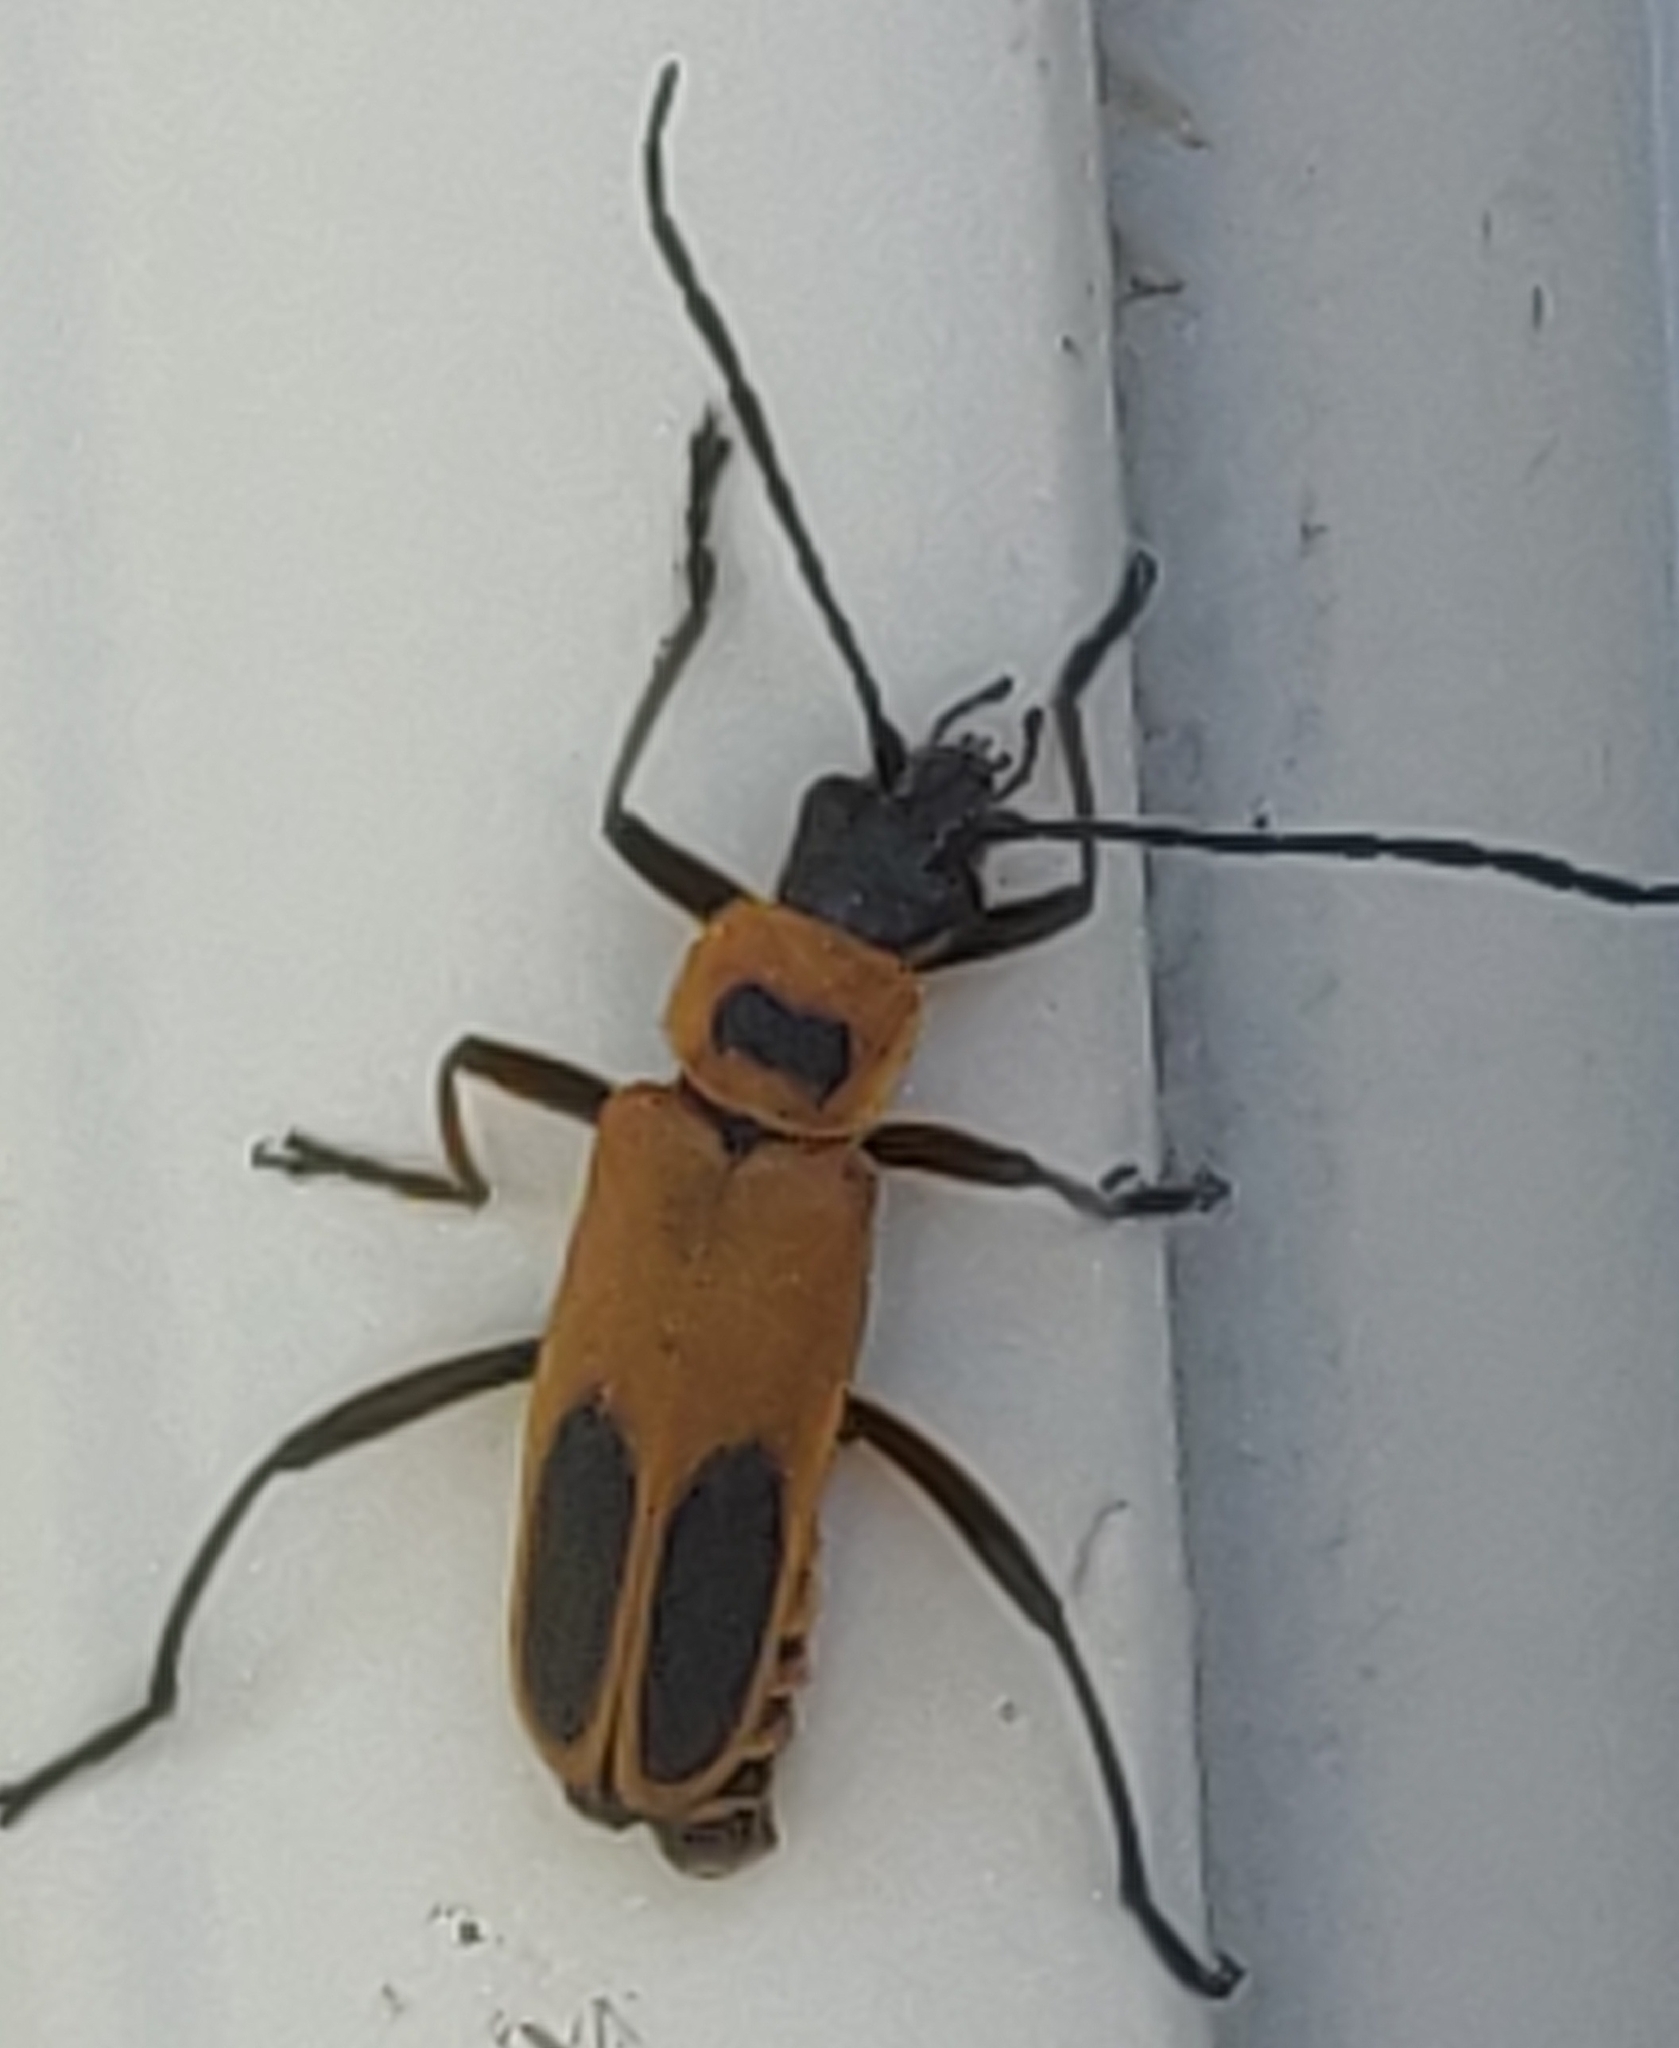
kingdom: Animalia
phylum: Arthropoda
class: Insecta
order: Coleoptera
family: Cantharidae
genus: Chauliognathus
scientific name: Chauliognathus pensylvanicus
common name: Goldenrod soldier beetle
